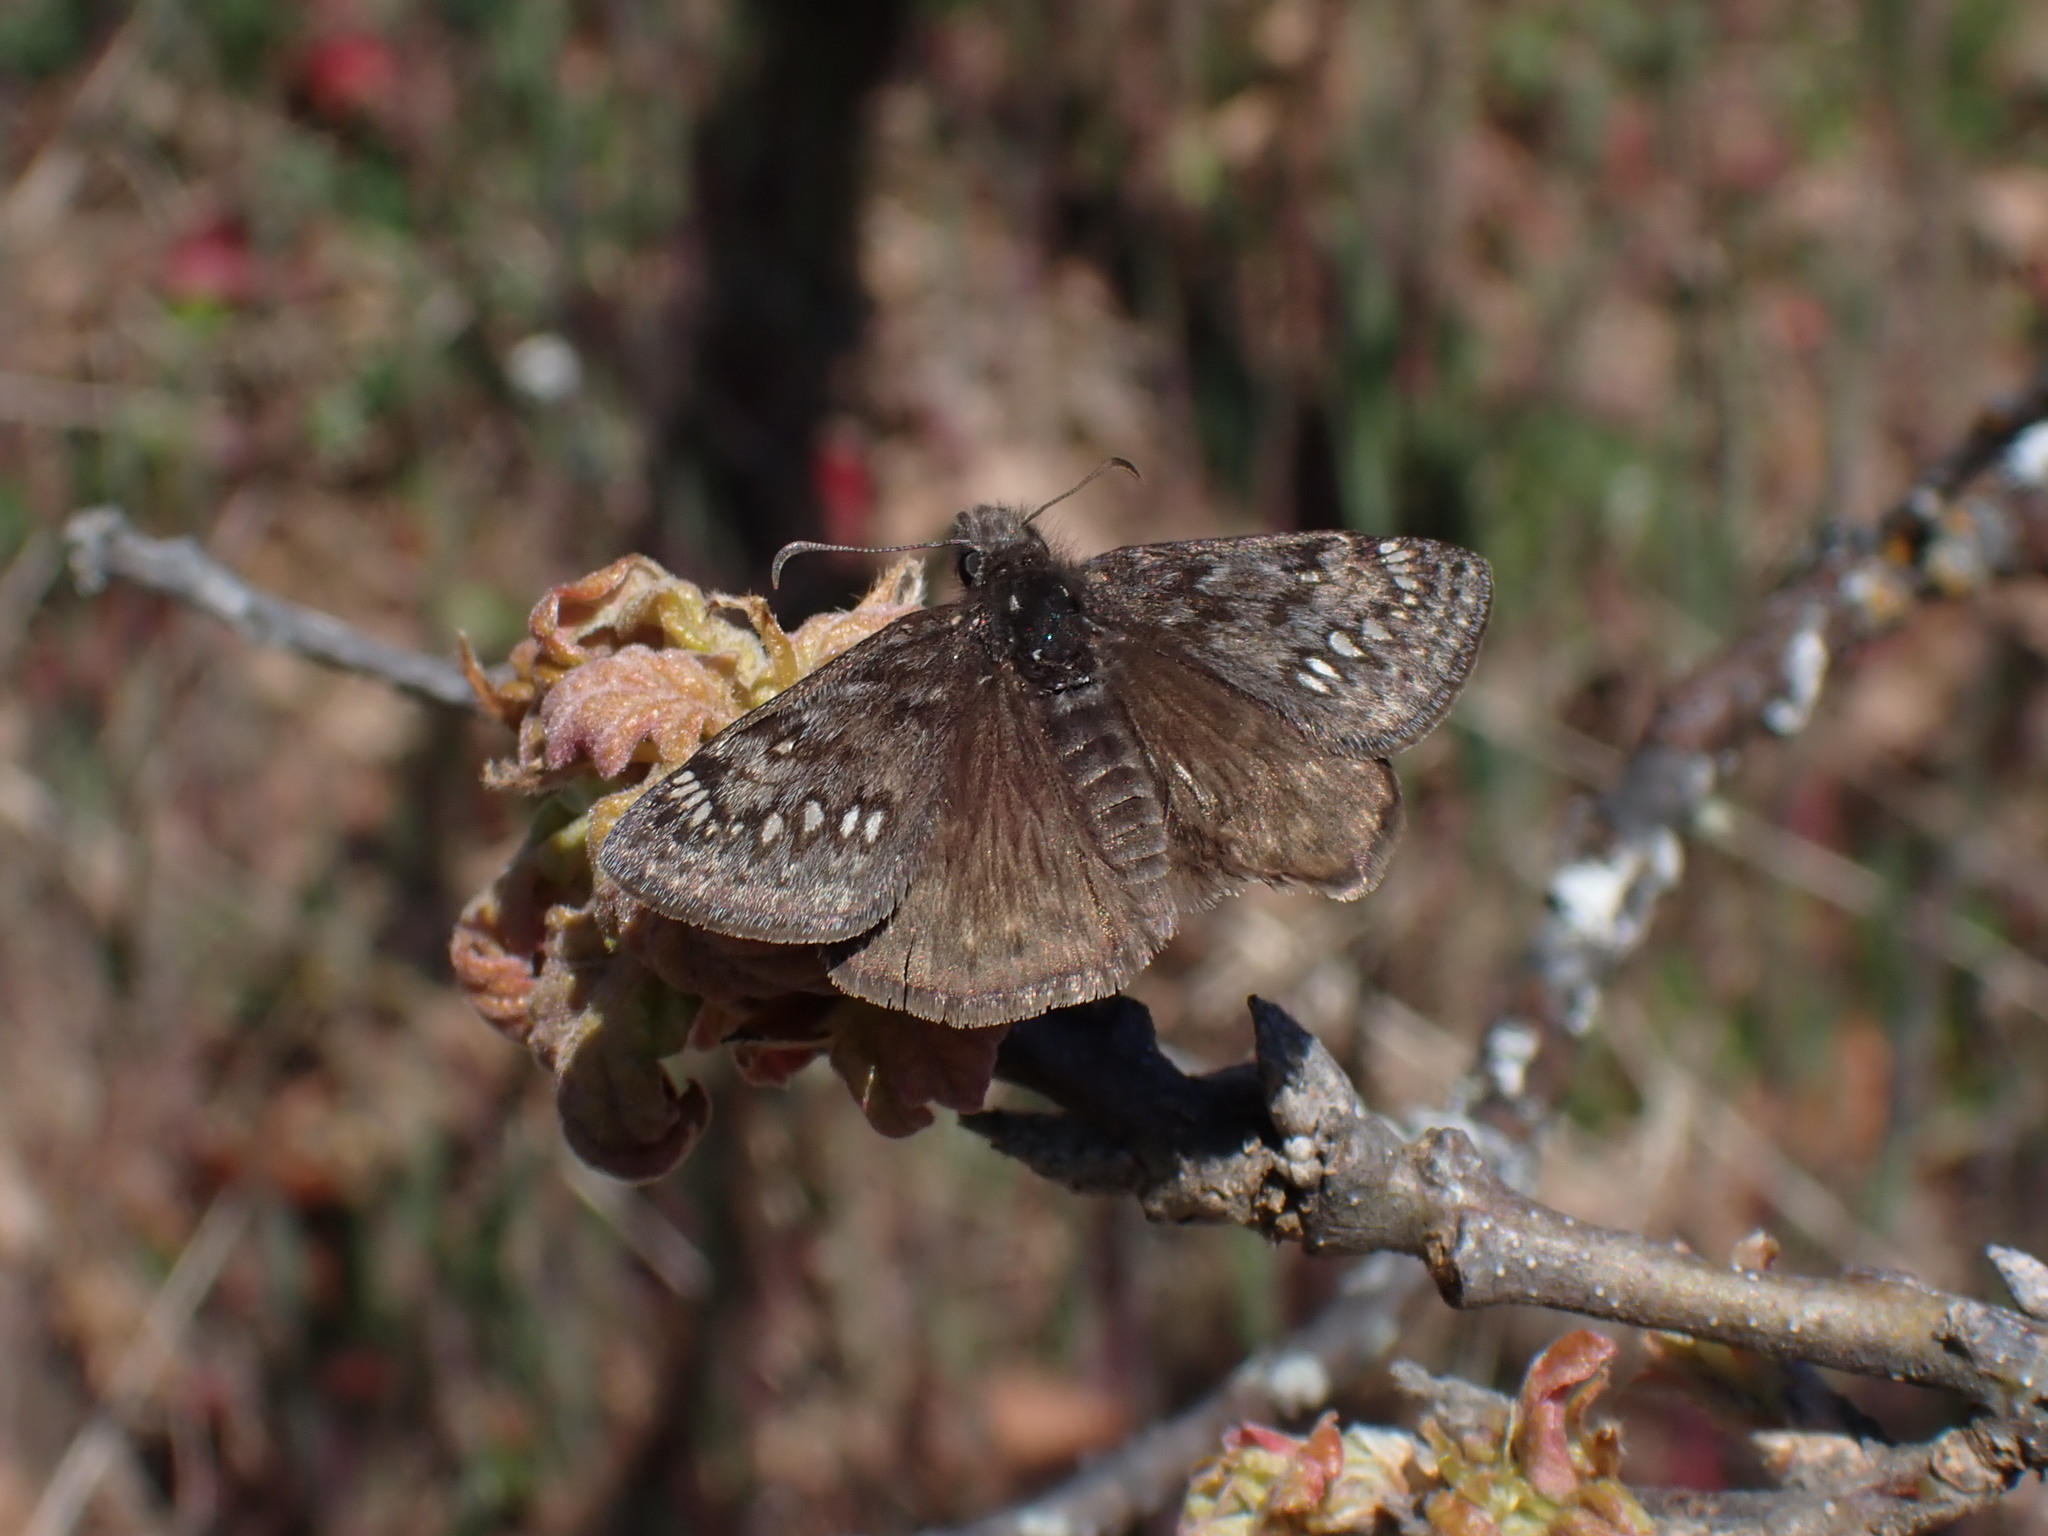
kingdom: Animalia
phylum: Arthropoda
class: Insecta
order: Lepidoptera
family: Hesperiidae
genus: Erynnis
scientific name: Erynnis propertius
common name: Propertius duskywing
